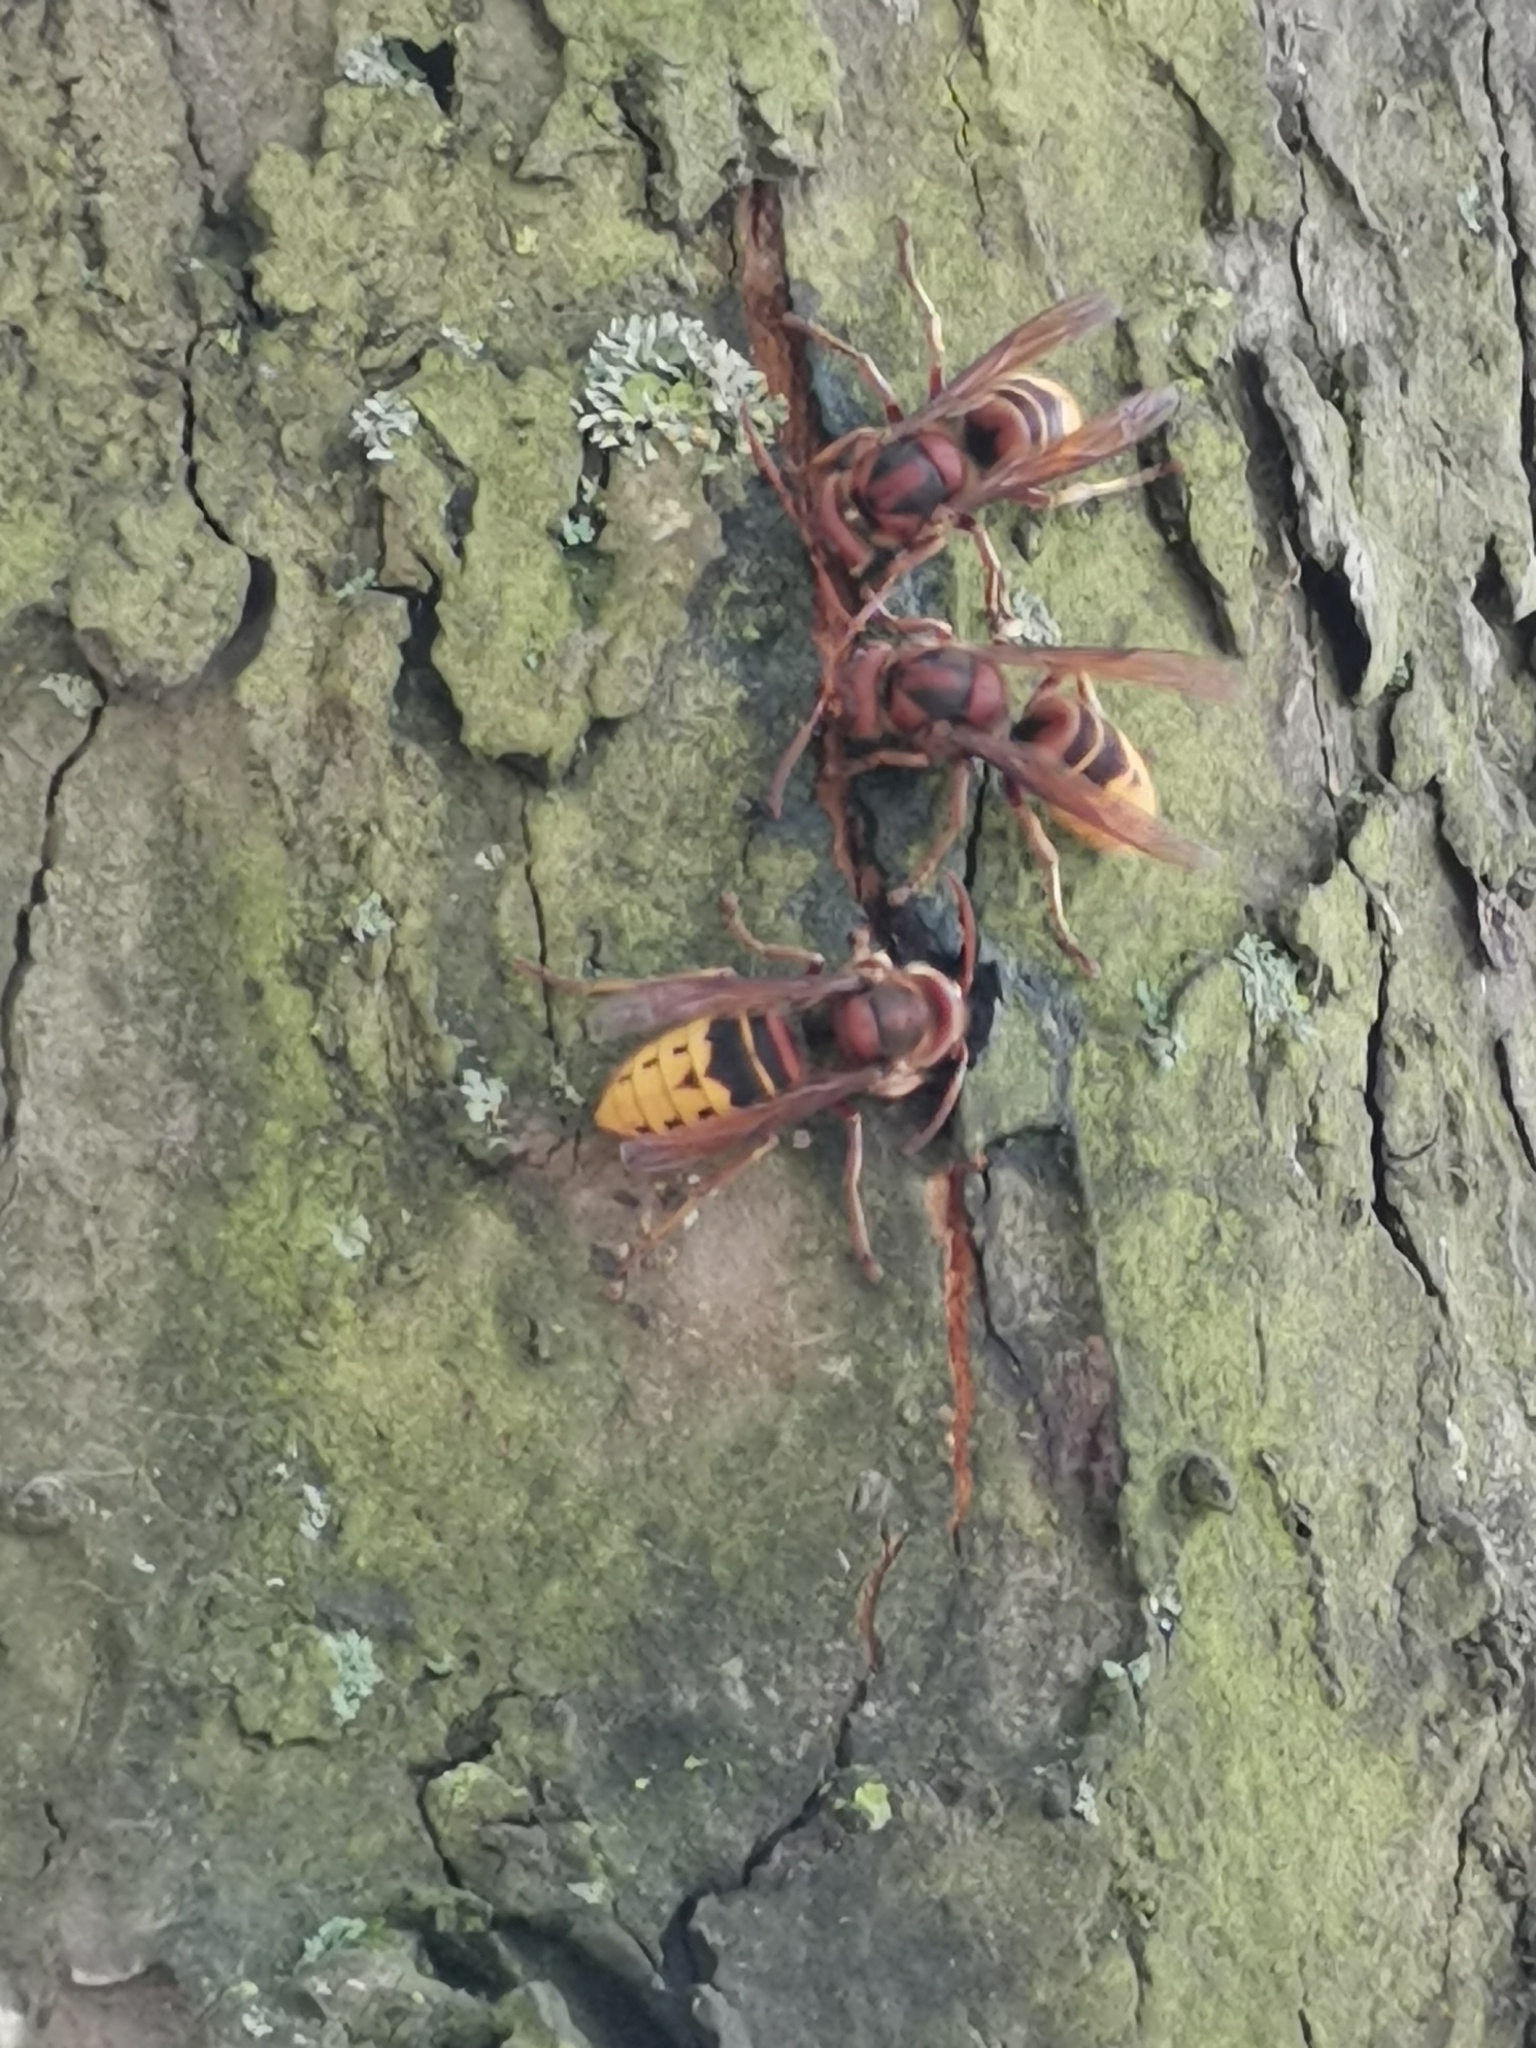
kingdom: Animalia
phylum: Arthropoda
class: Insecta
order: Hymenoptera
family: Vespidae
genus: Vespa
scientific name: Vespa crabro
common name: Hornet
